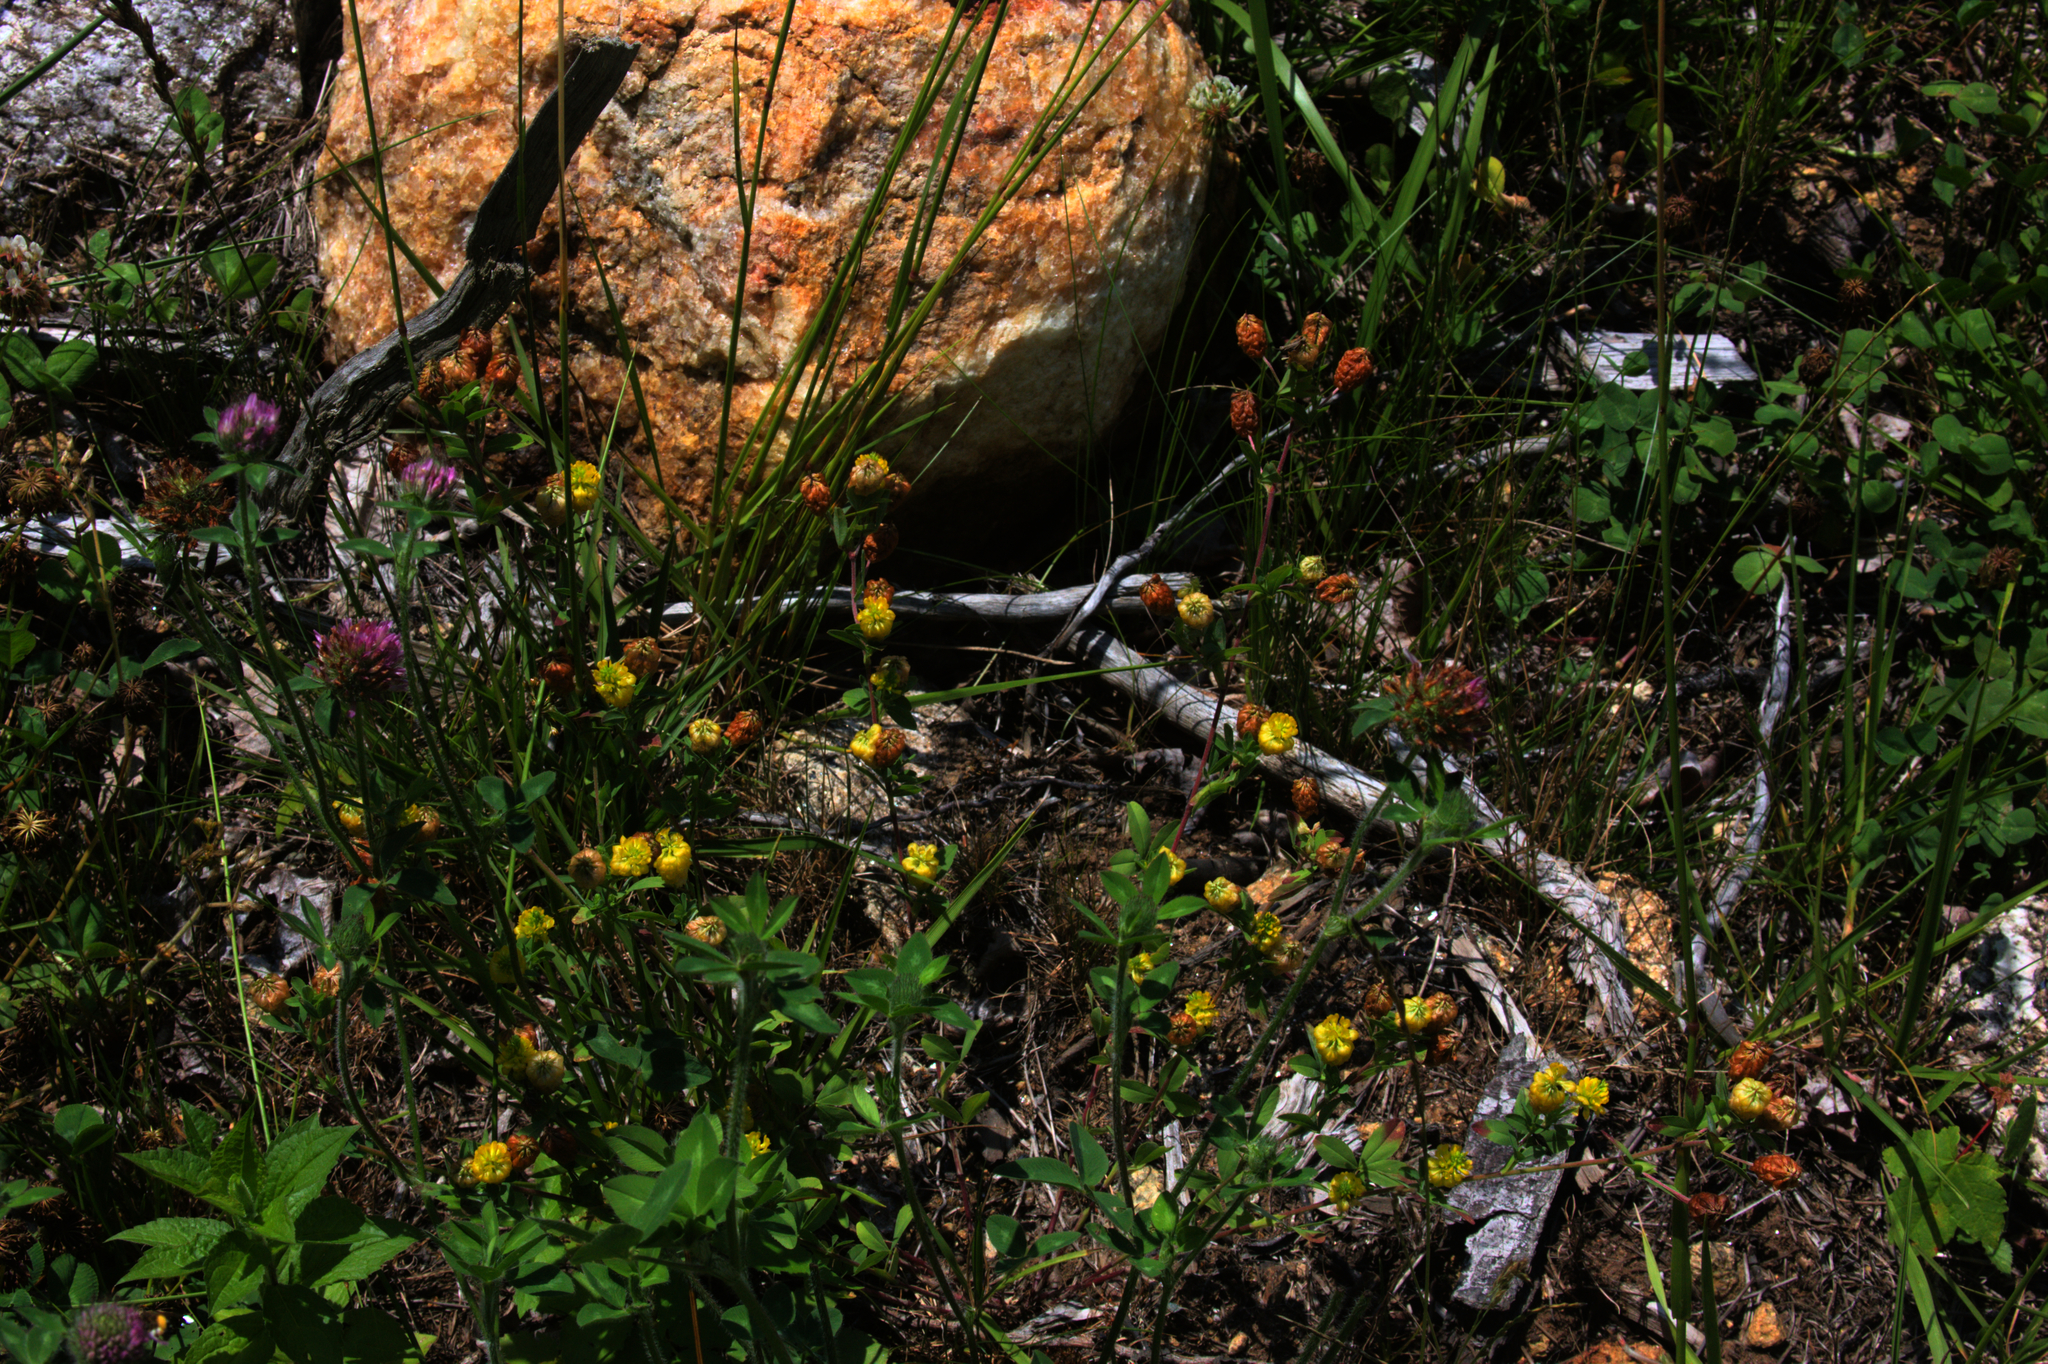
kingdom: Plantae
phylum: Tracheophyta
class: Magnoliopsida
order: Fabales
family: Fabaceae
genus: Trifolium
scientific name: Trifolium aureum
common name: Golden clover
